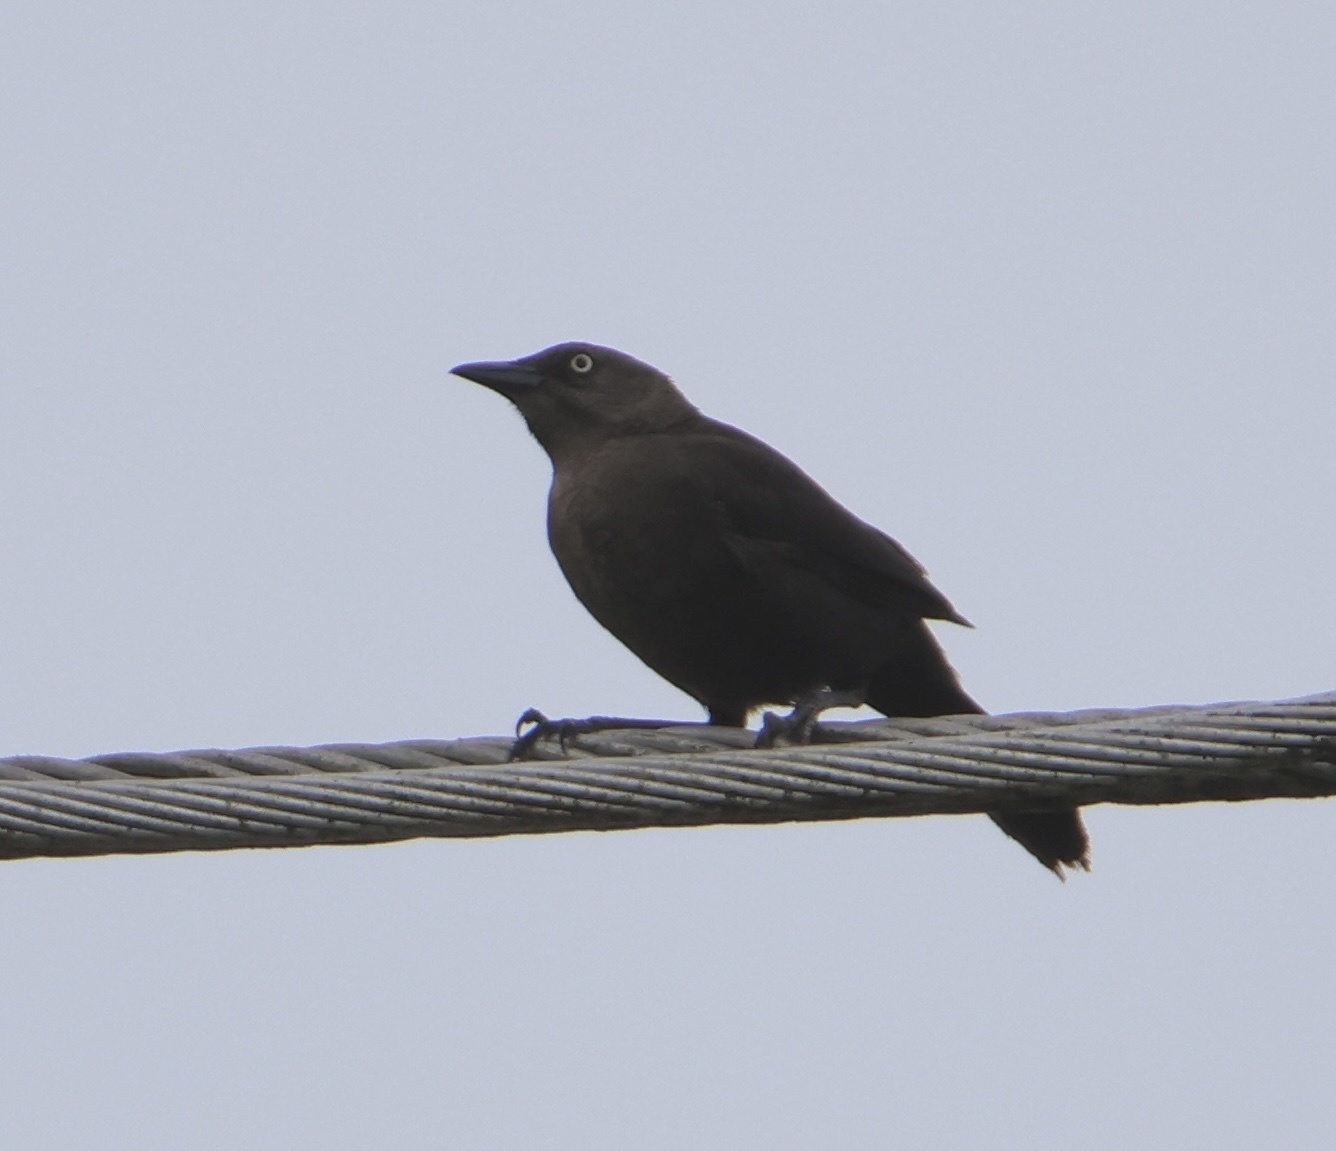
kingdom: Animalia
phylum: Chordata
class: Aves
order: Passeriformes
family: Icteridae
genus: Quiscalus
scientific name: Quiscalus lugubris
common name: Carib grackle
